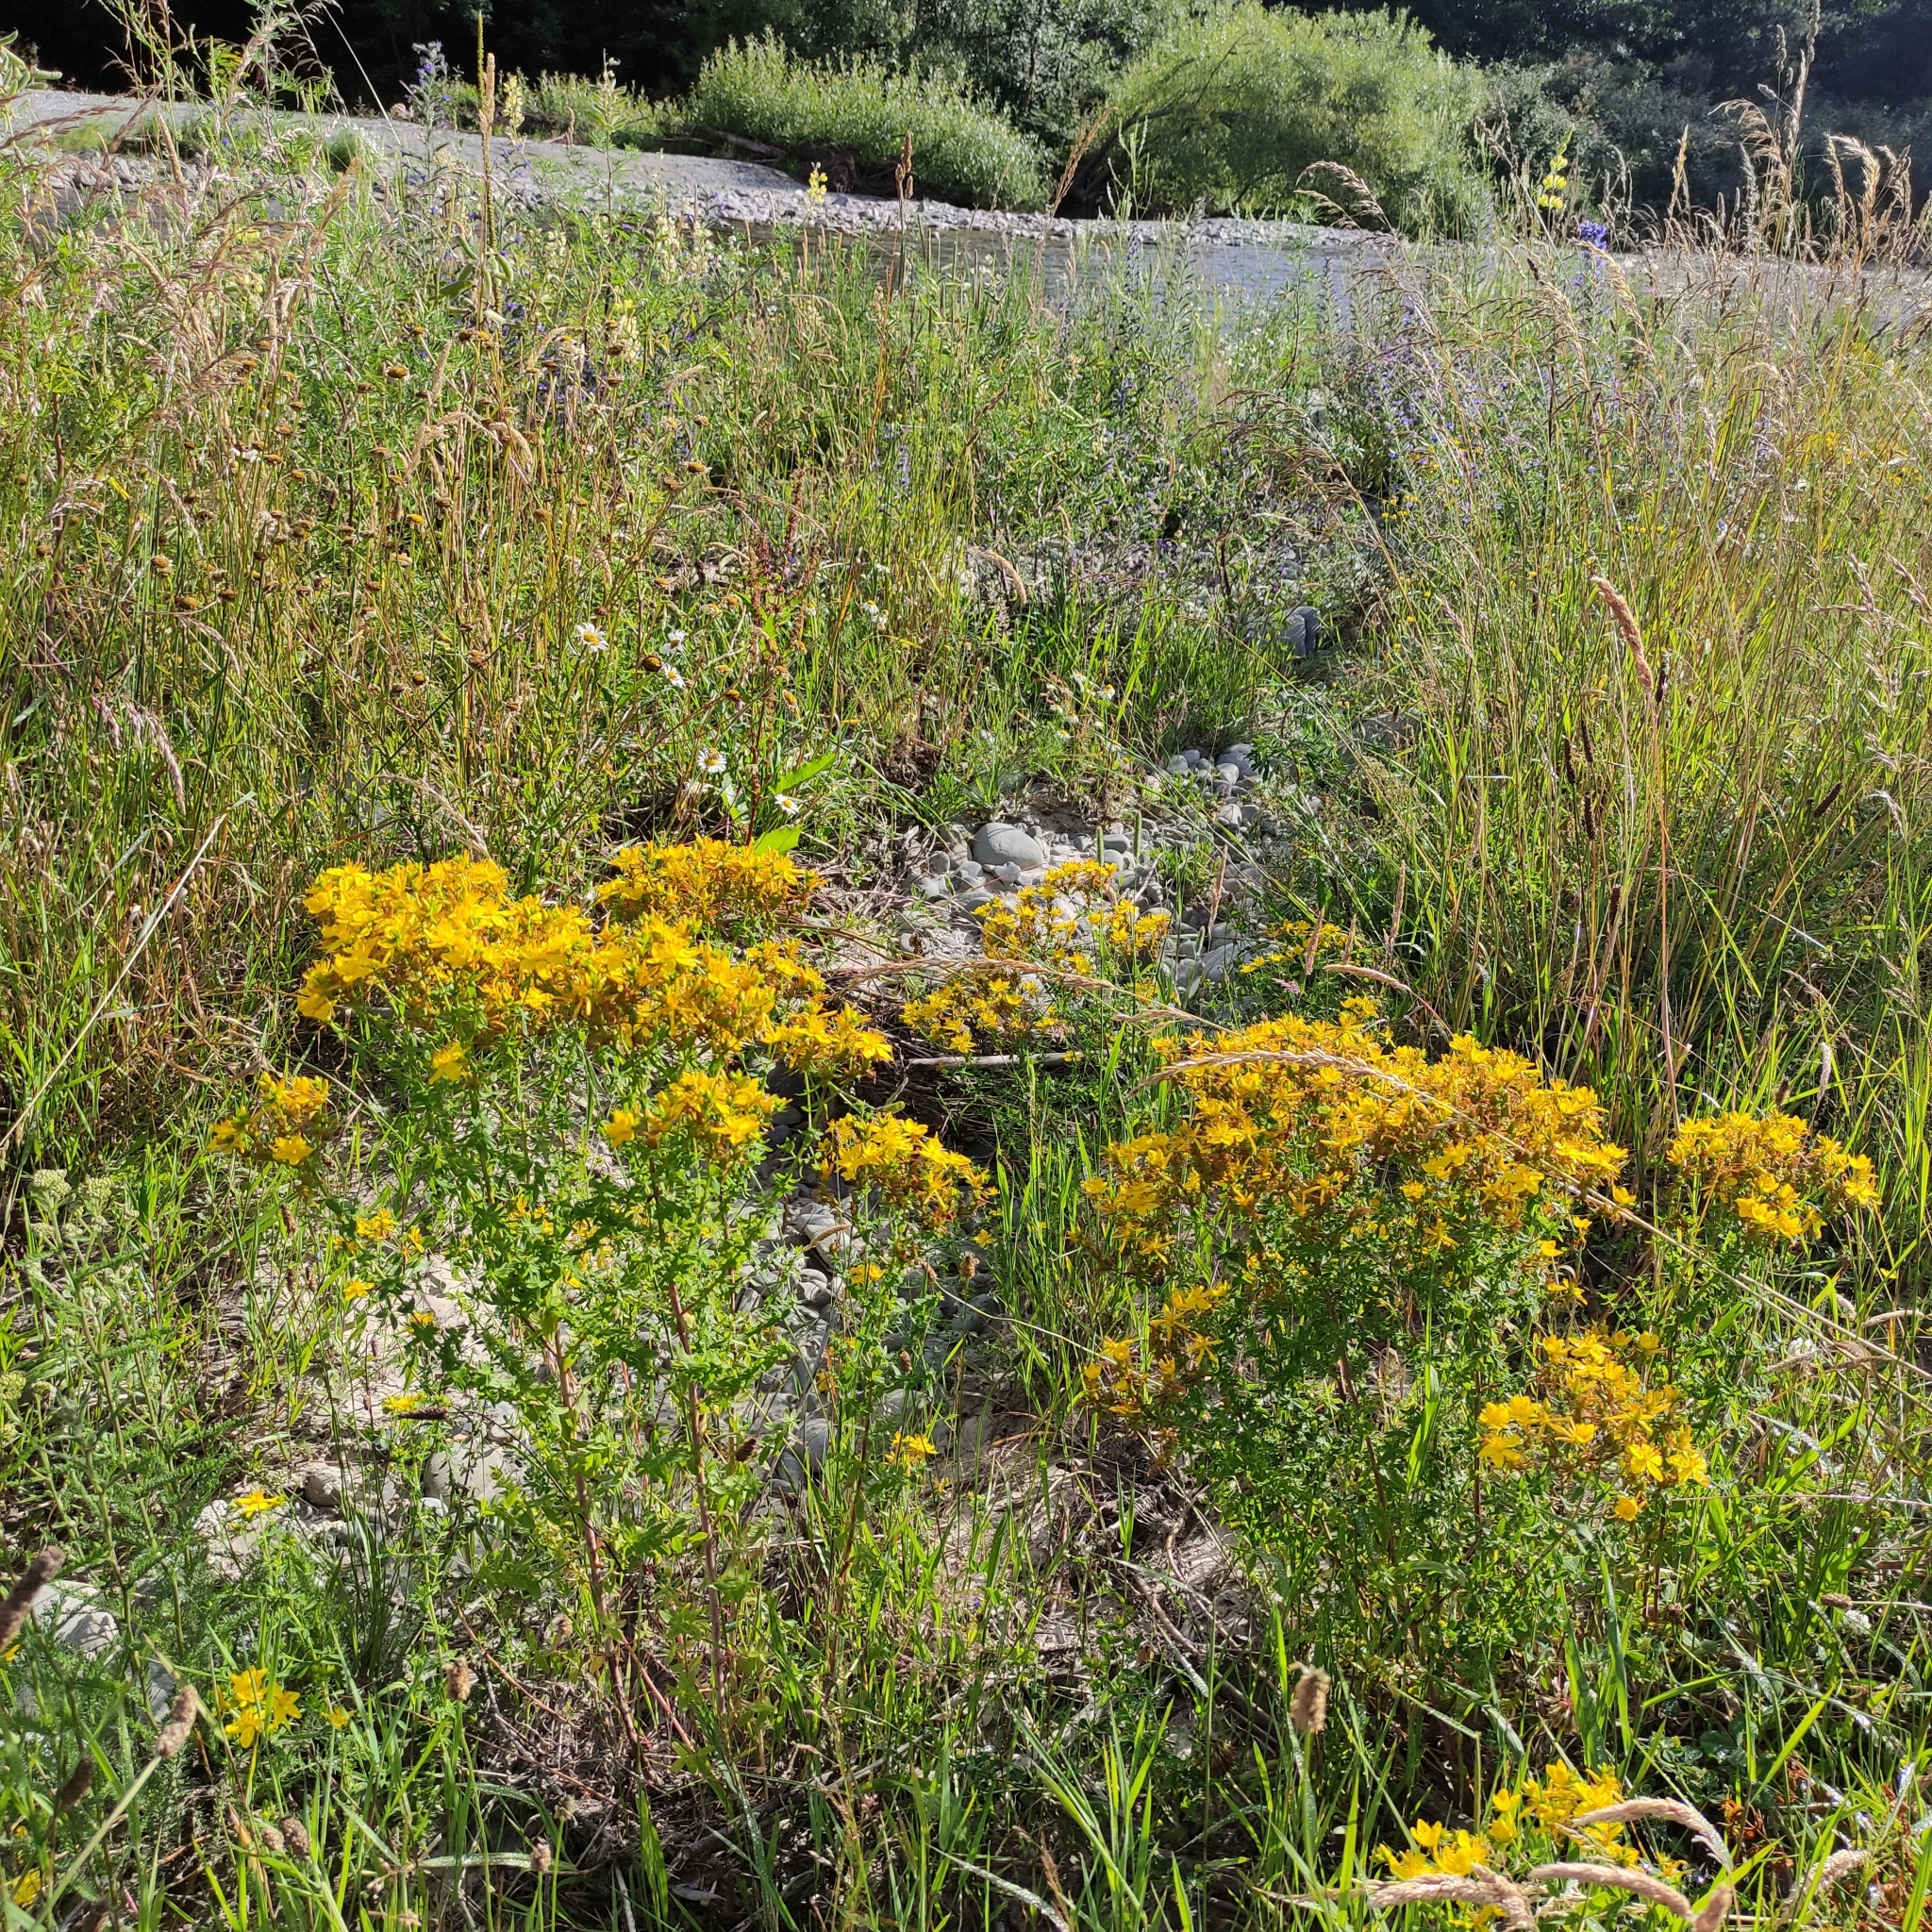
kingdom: Plantae
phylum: Tracheophyta
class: Magnoliopsida
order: Malpighiales
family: Hypericaceae
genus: Hypericum
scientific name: Hypericum perforatum
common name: Common st. johnswort
